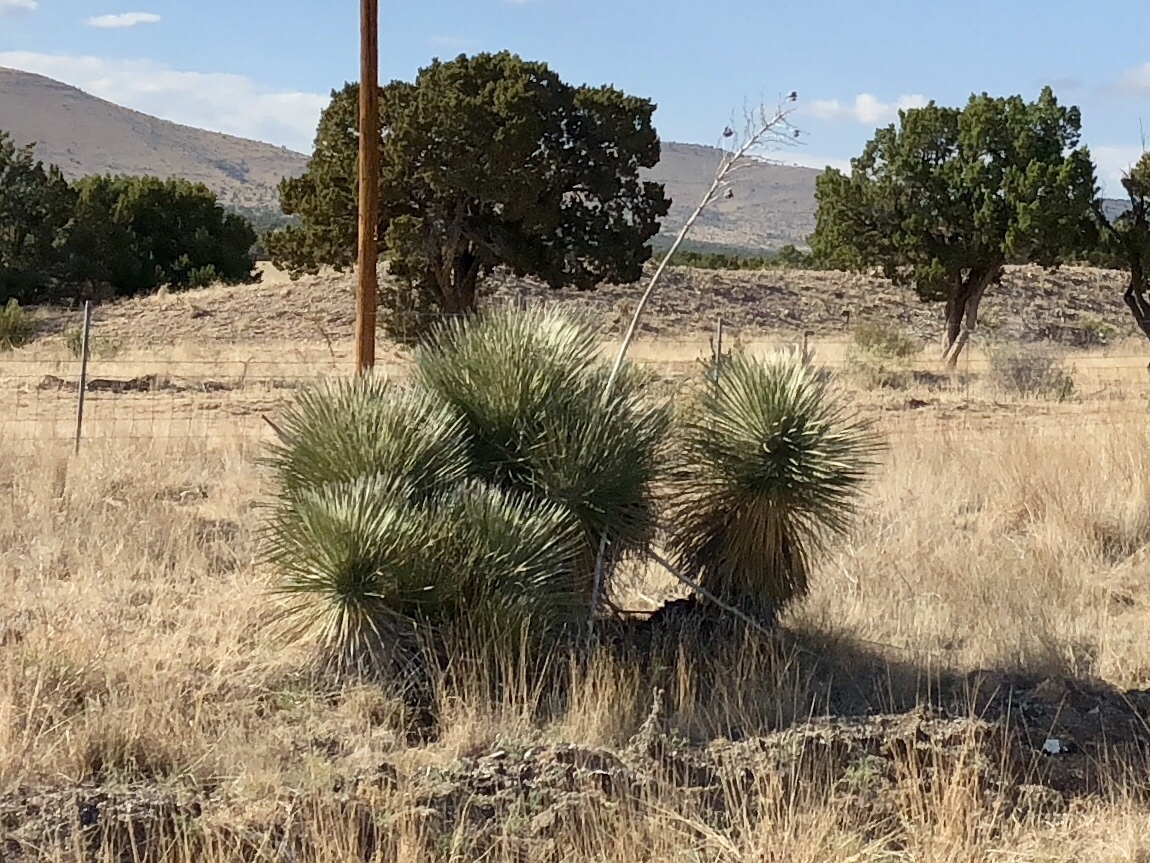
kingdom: Plantae
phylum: Tracheophyta
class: Liliopsida
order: Asparagales
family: Asparagaceae
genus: Yucca
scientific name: Yucca elata
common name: Palmella
